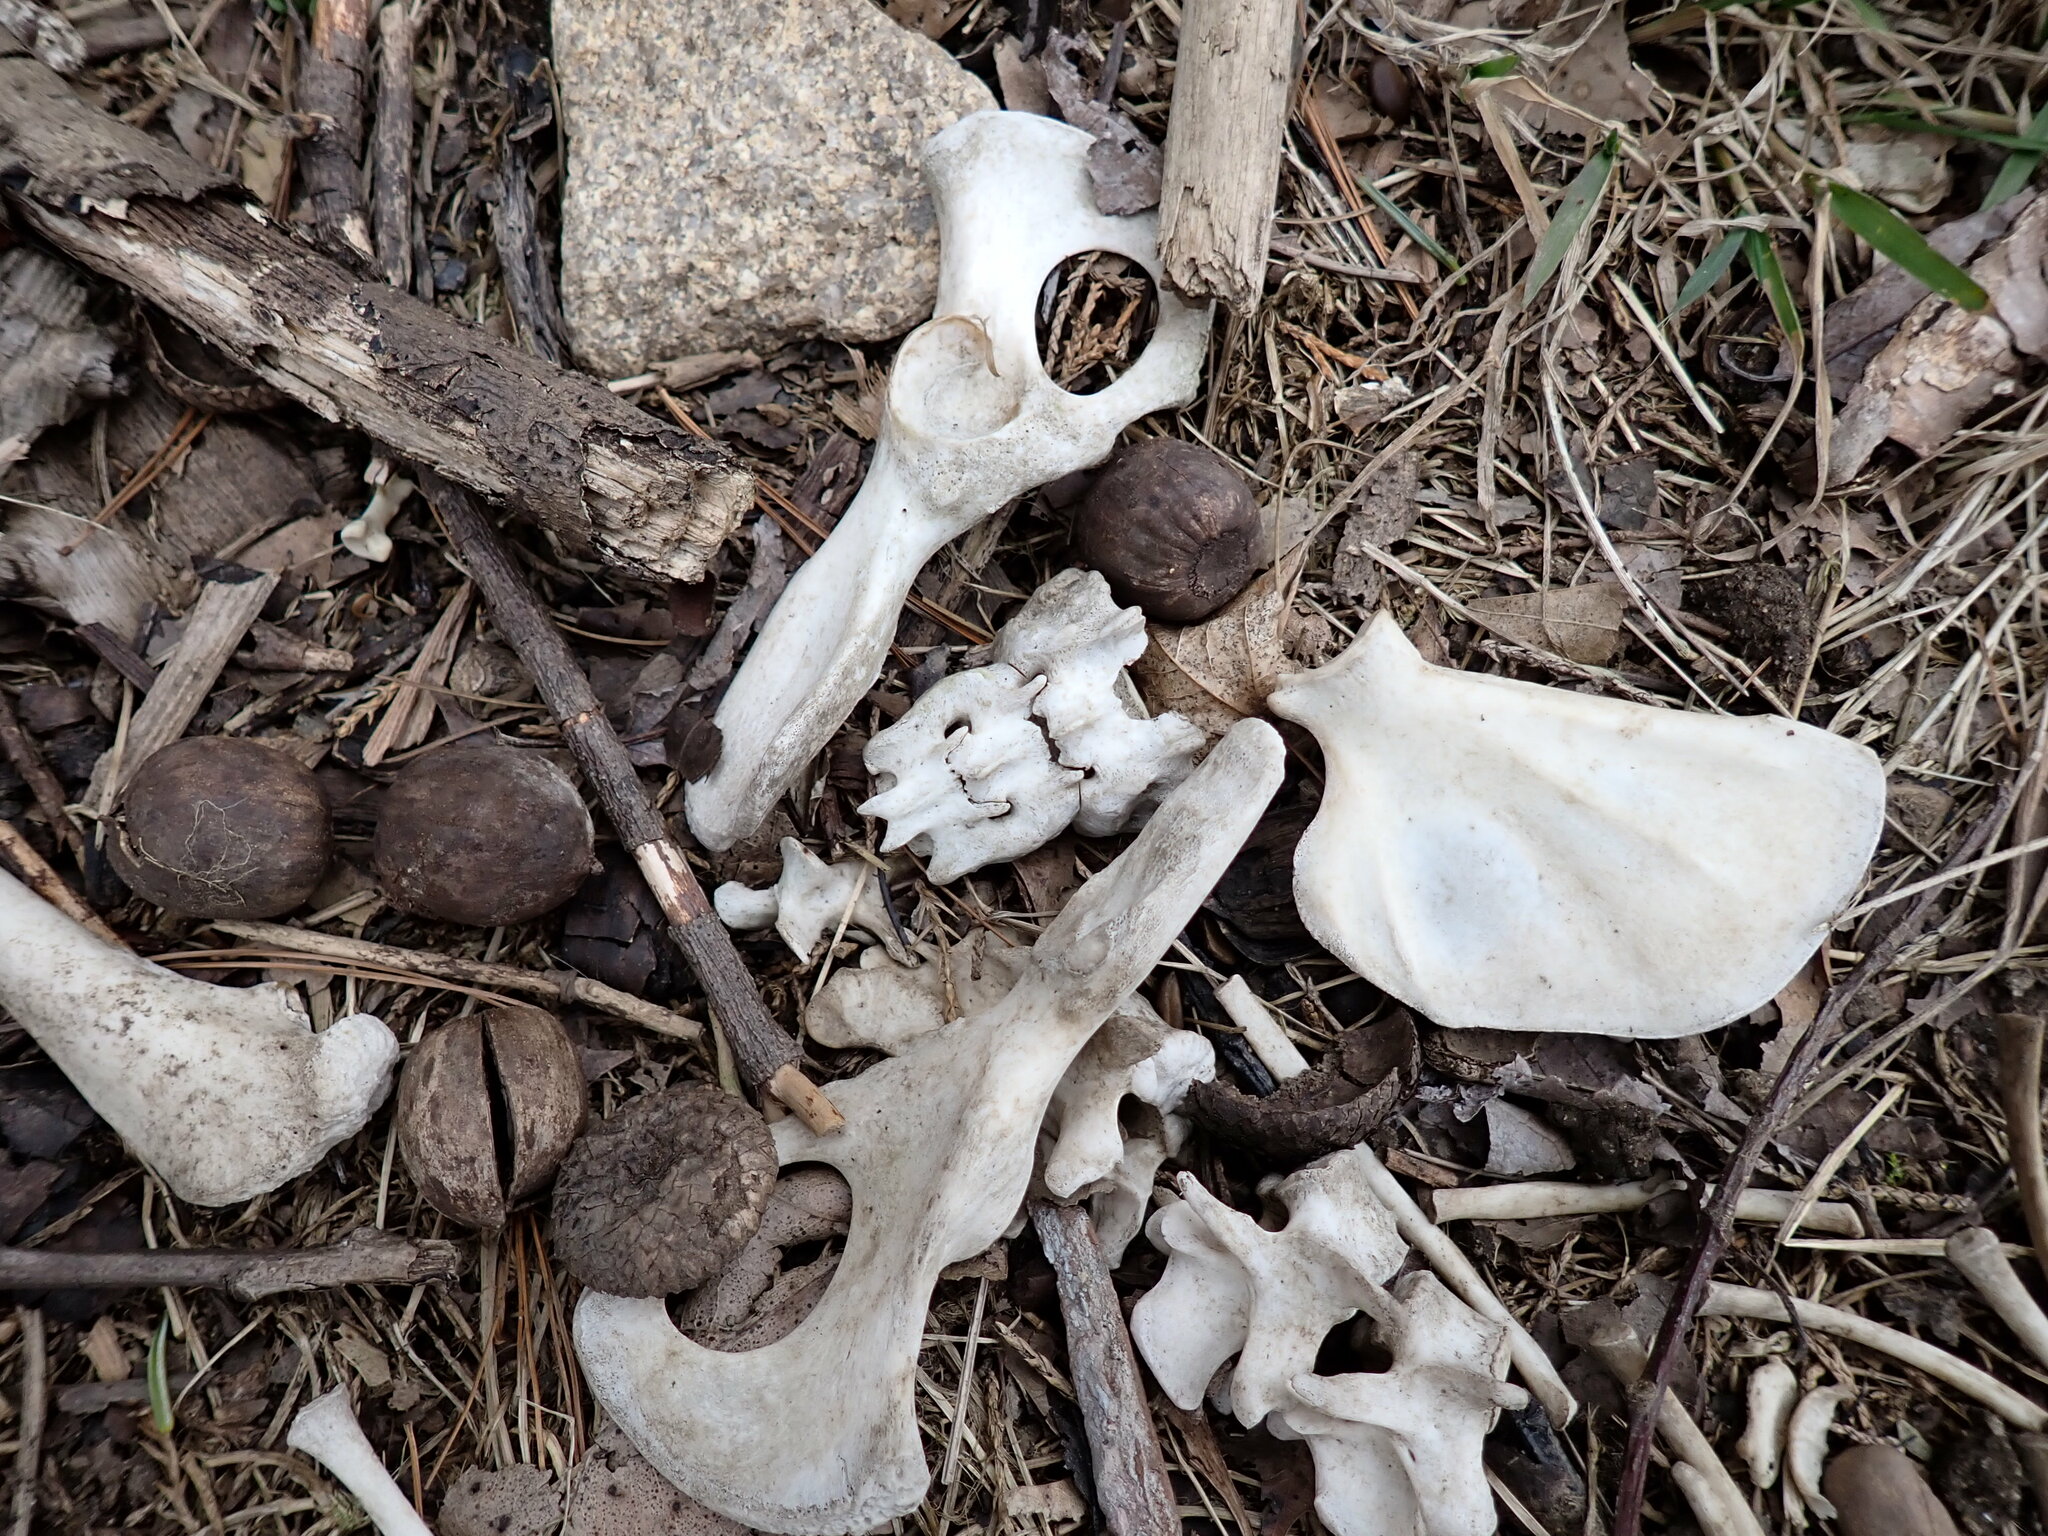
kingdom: Animalia
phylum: Chordata
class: Mammalia
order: Carnivora
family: Procyonidae
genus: Procyon
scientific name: Procyon lotor
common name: Raccoon
